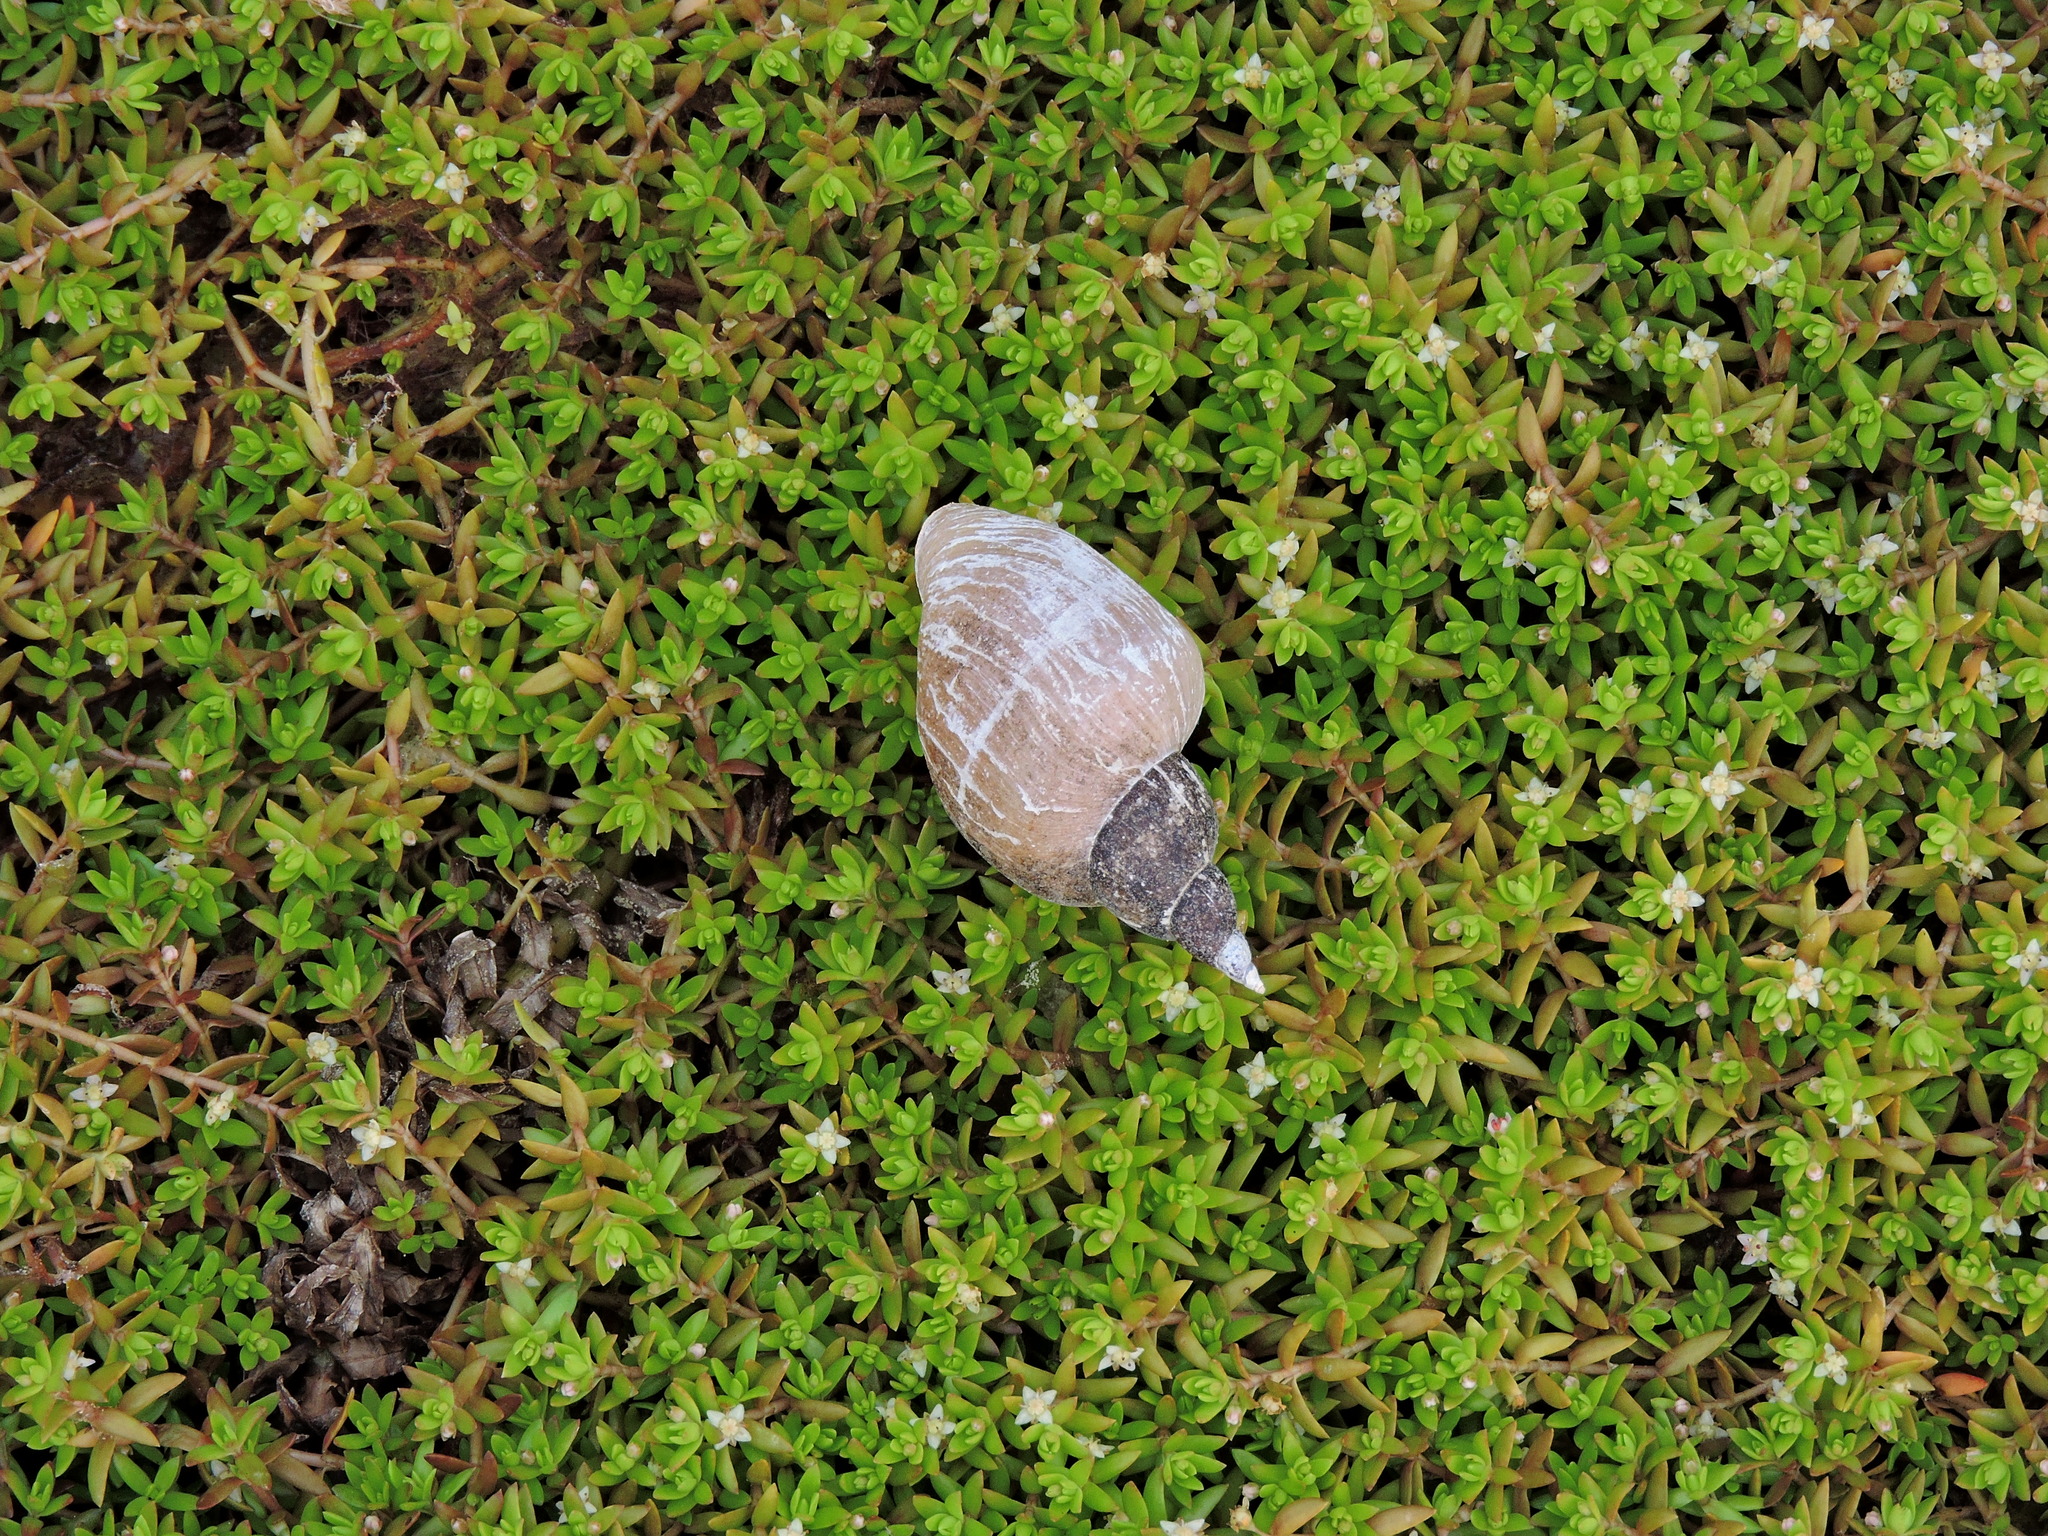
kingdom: Animalia
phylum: Mollusca
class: Gastropoda
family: Lymnaeidae
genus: Lymnaea
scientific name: Lymnaea stagnalis
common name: Great pond snail
